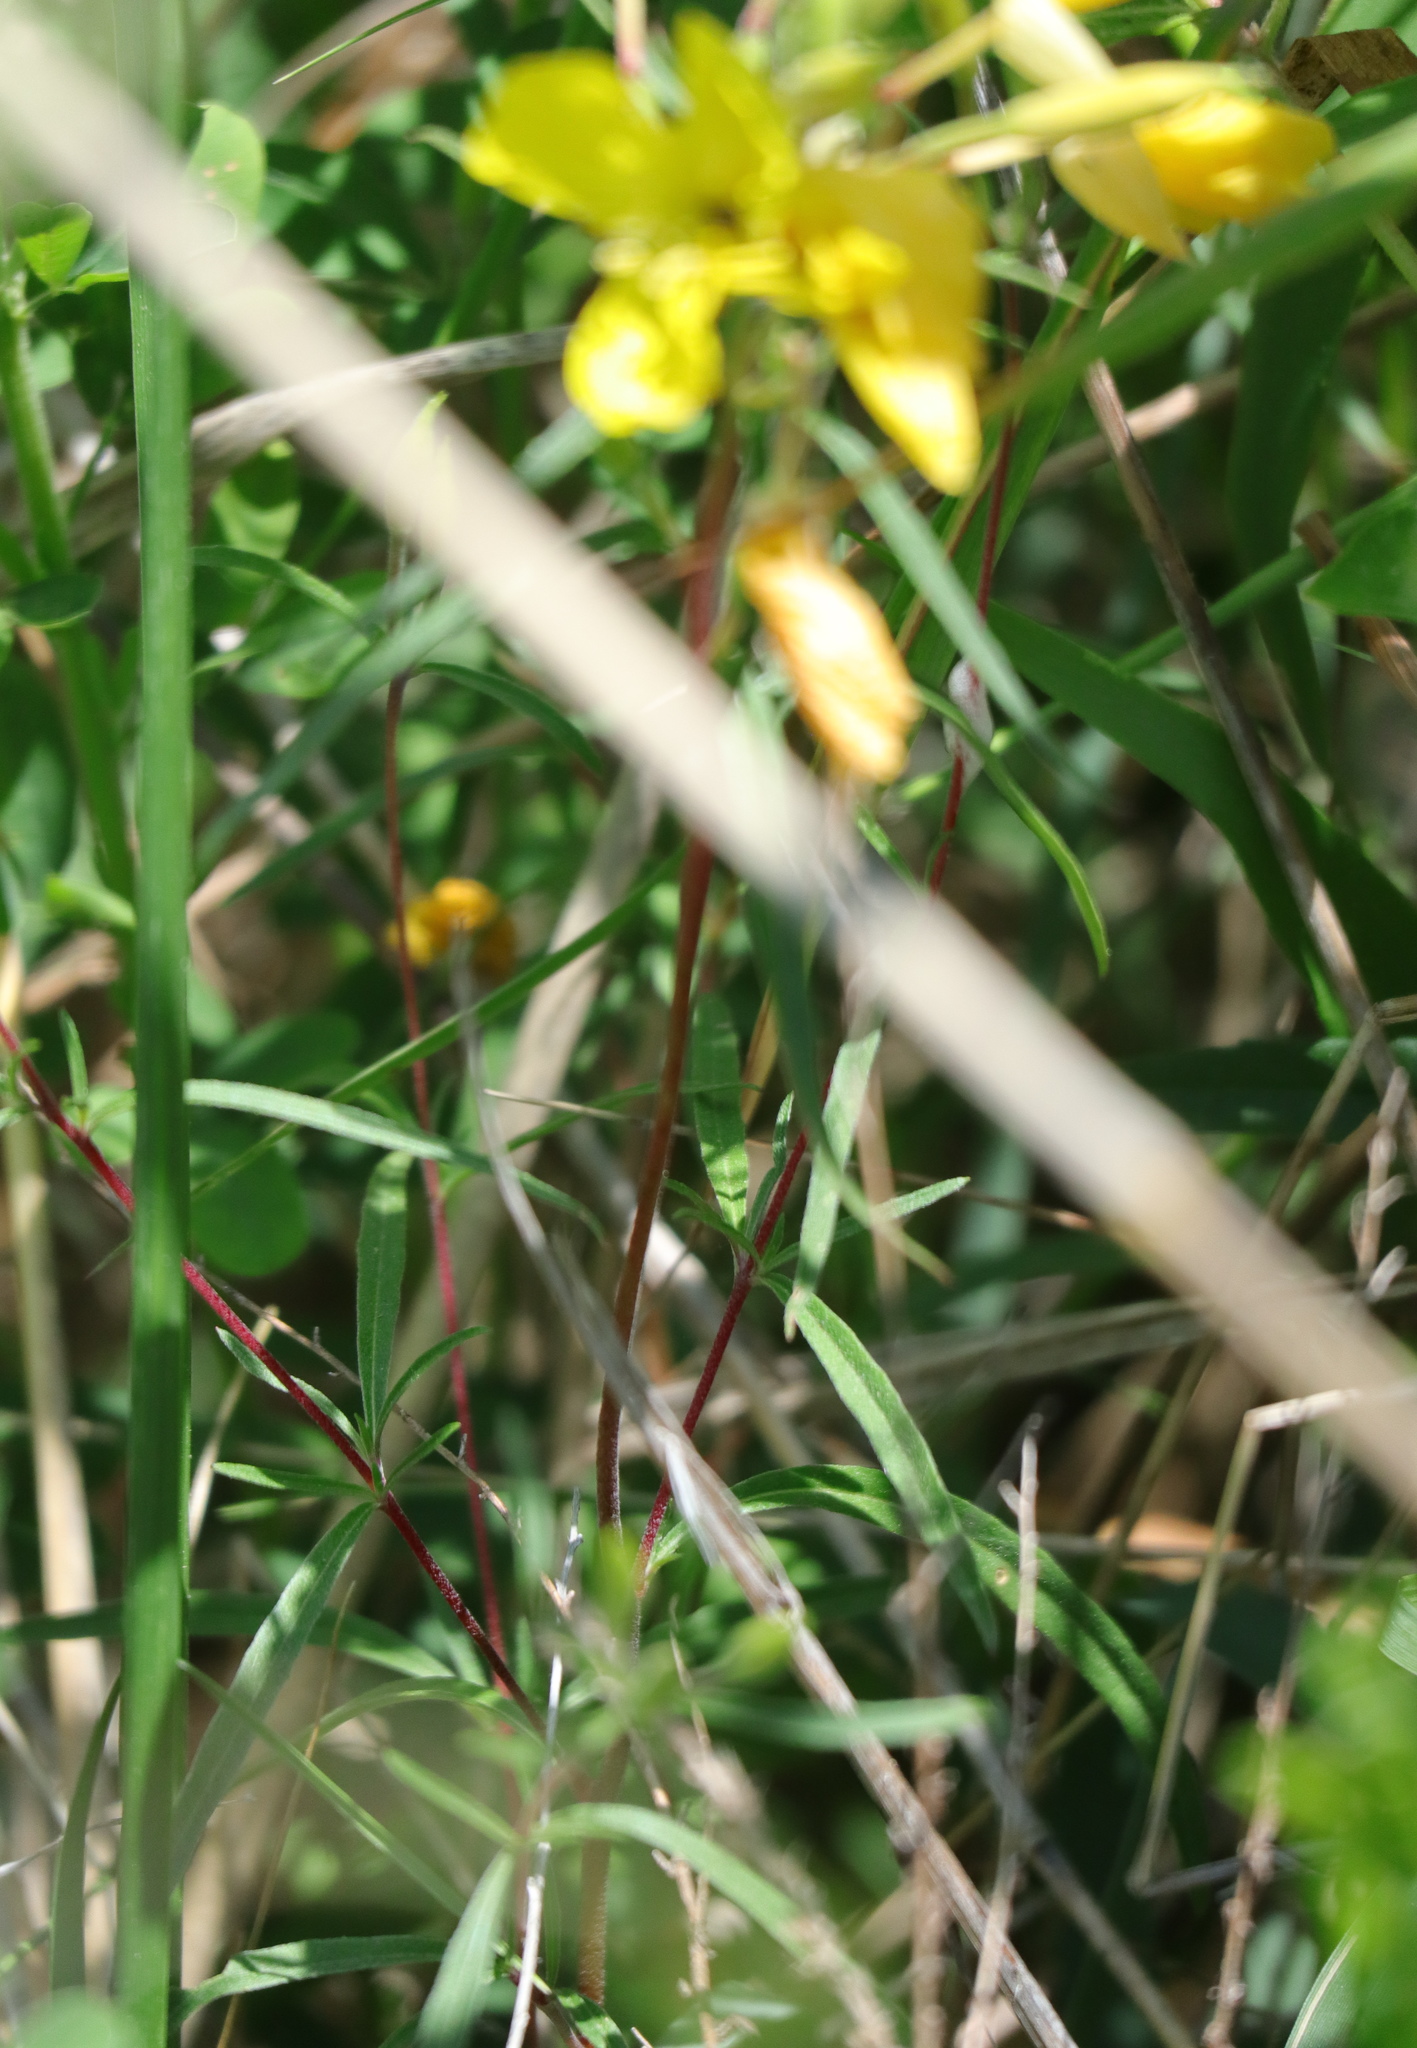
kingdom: Plantae
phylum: Tracheophyta
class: Magnoliopsida
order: Myrtales
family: Onagraceae
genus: Oenothera
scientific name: Oenothera fruticosa
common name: Southern sundrops
